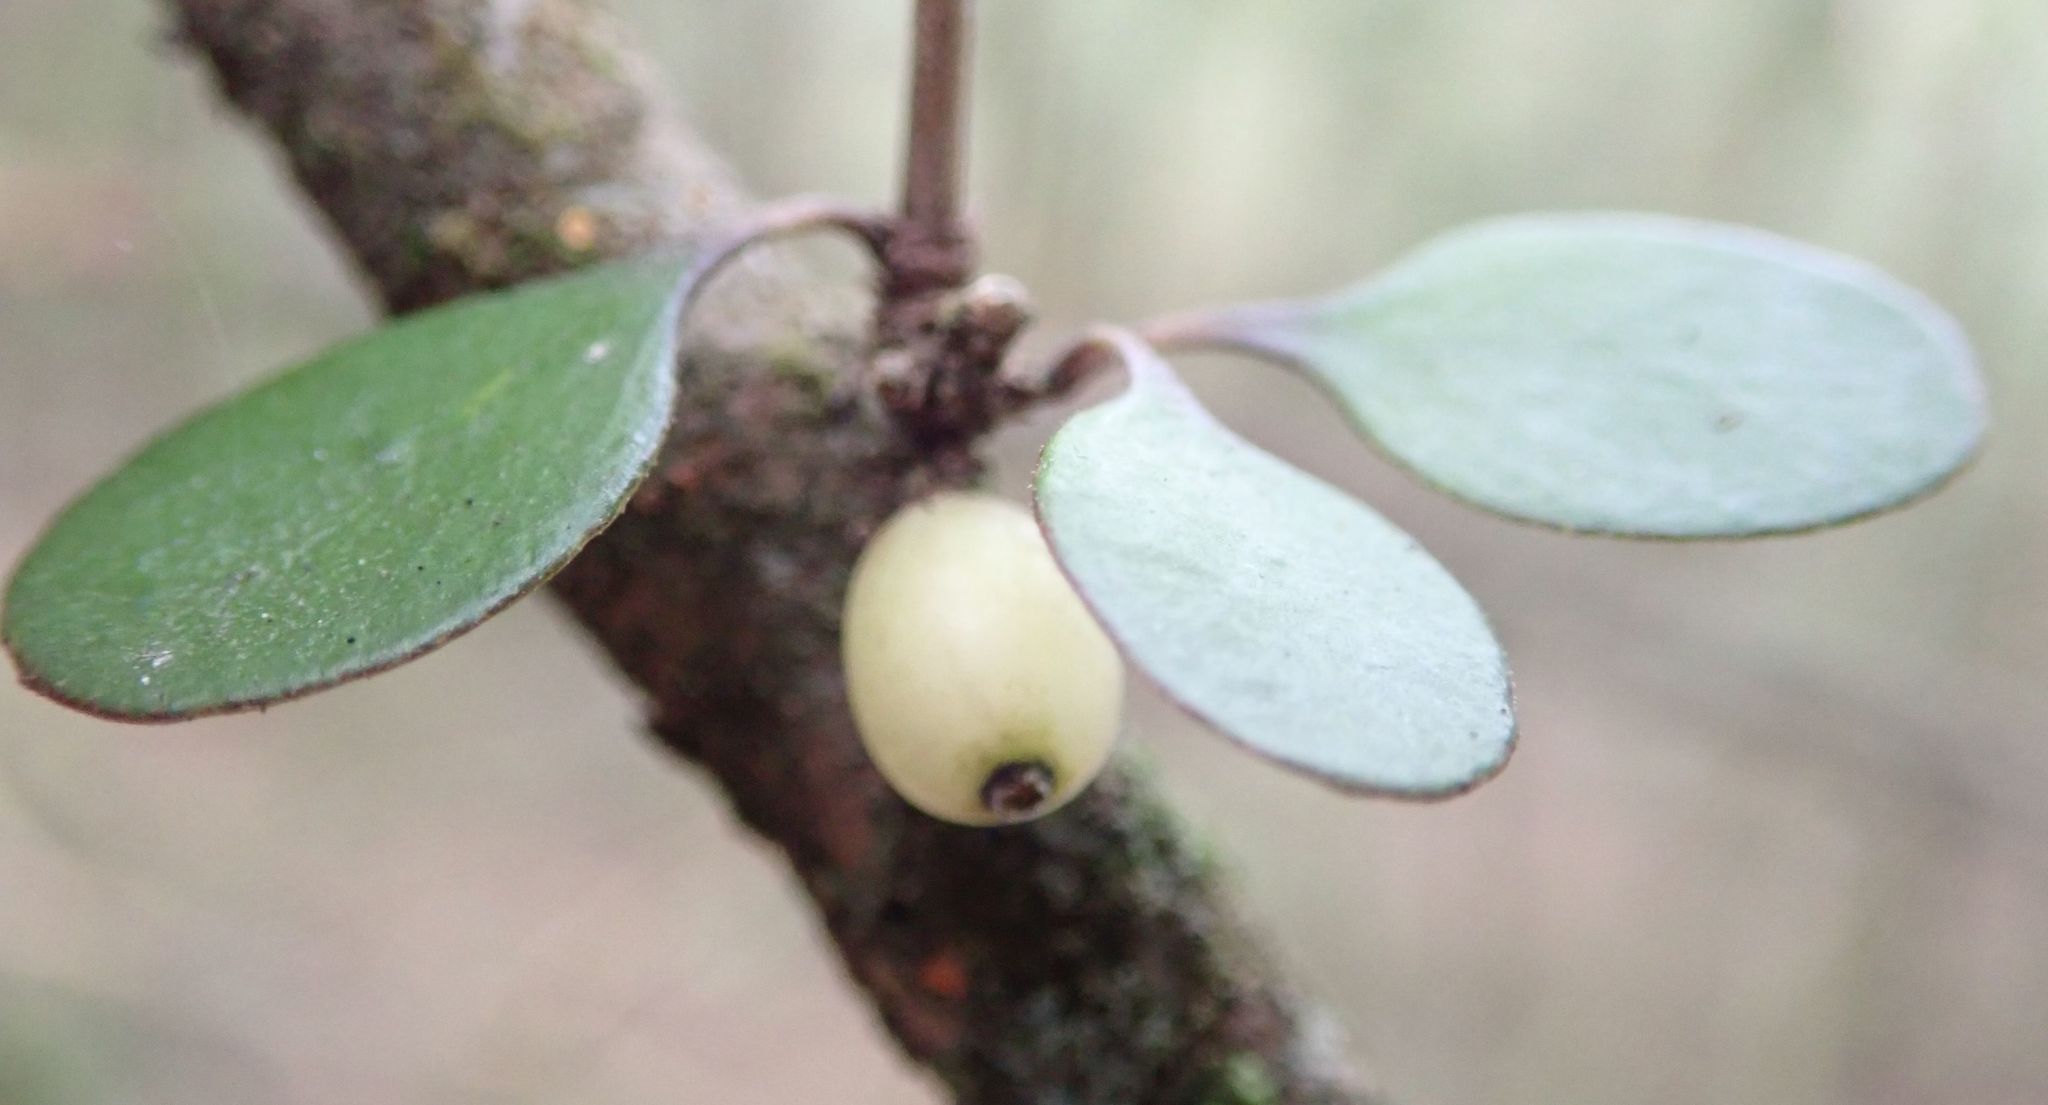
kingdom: Plantae
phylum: Tracheophyta
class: Magnoliopsida
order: Gentianales
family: Rubiaceae
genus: Coprosma
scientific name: Coprosma crassifolia
